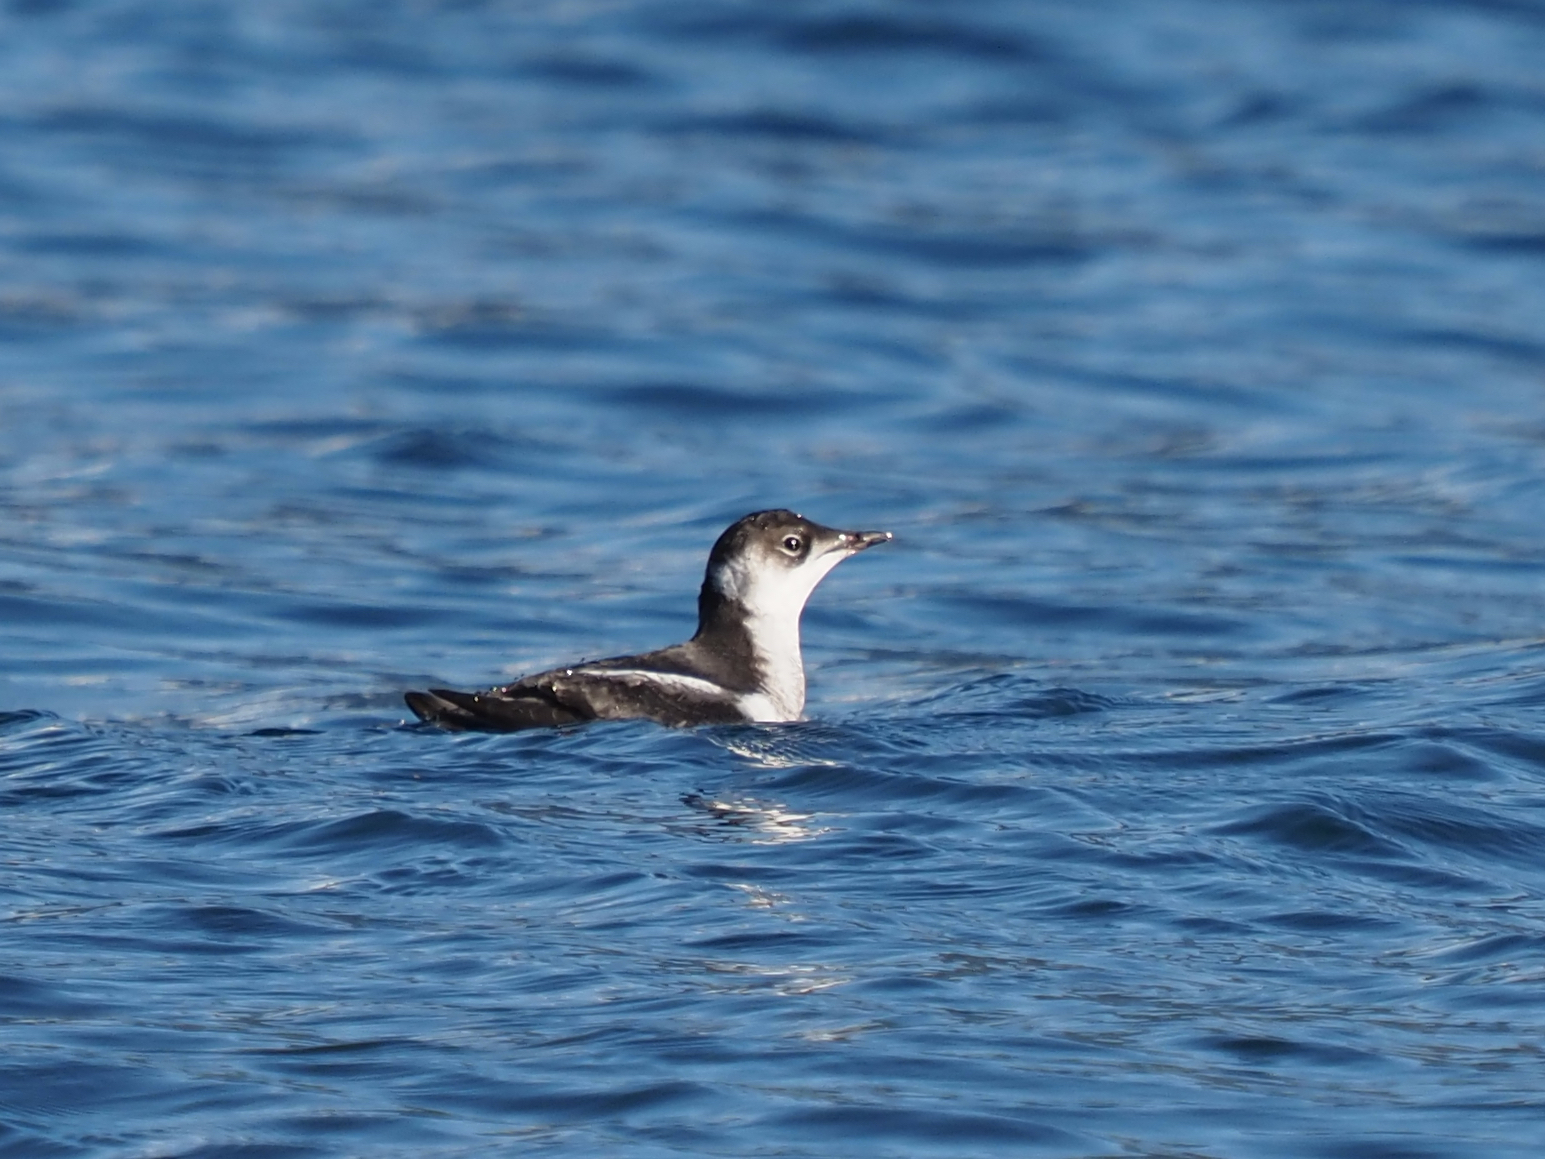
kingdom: Animalia
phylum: Chordata
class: Aves
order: Charadriiformes
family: Alcidae
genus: Brachyramphus
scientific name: Brachyramphus marmoratus
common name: Marbled murrelet
